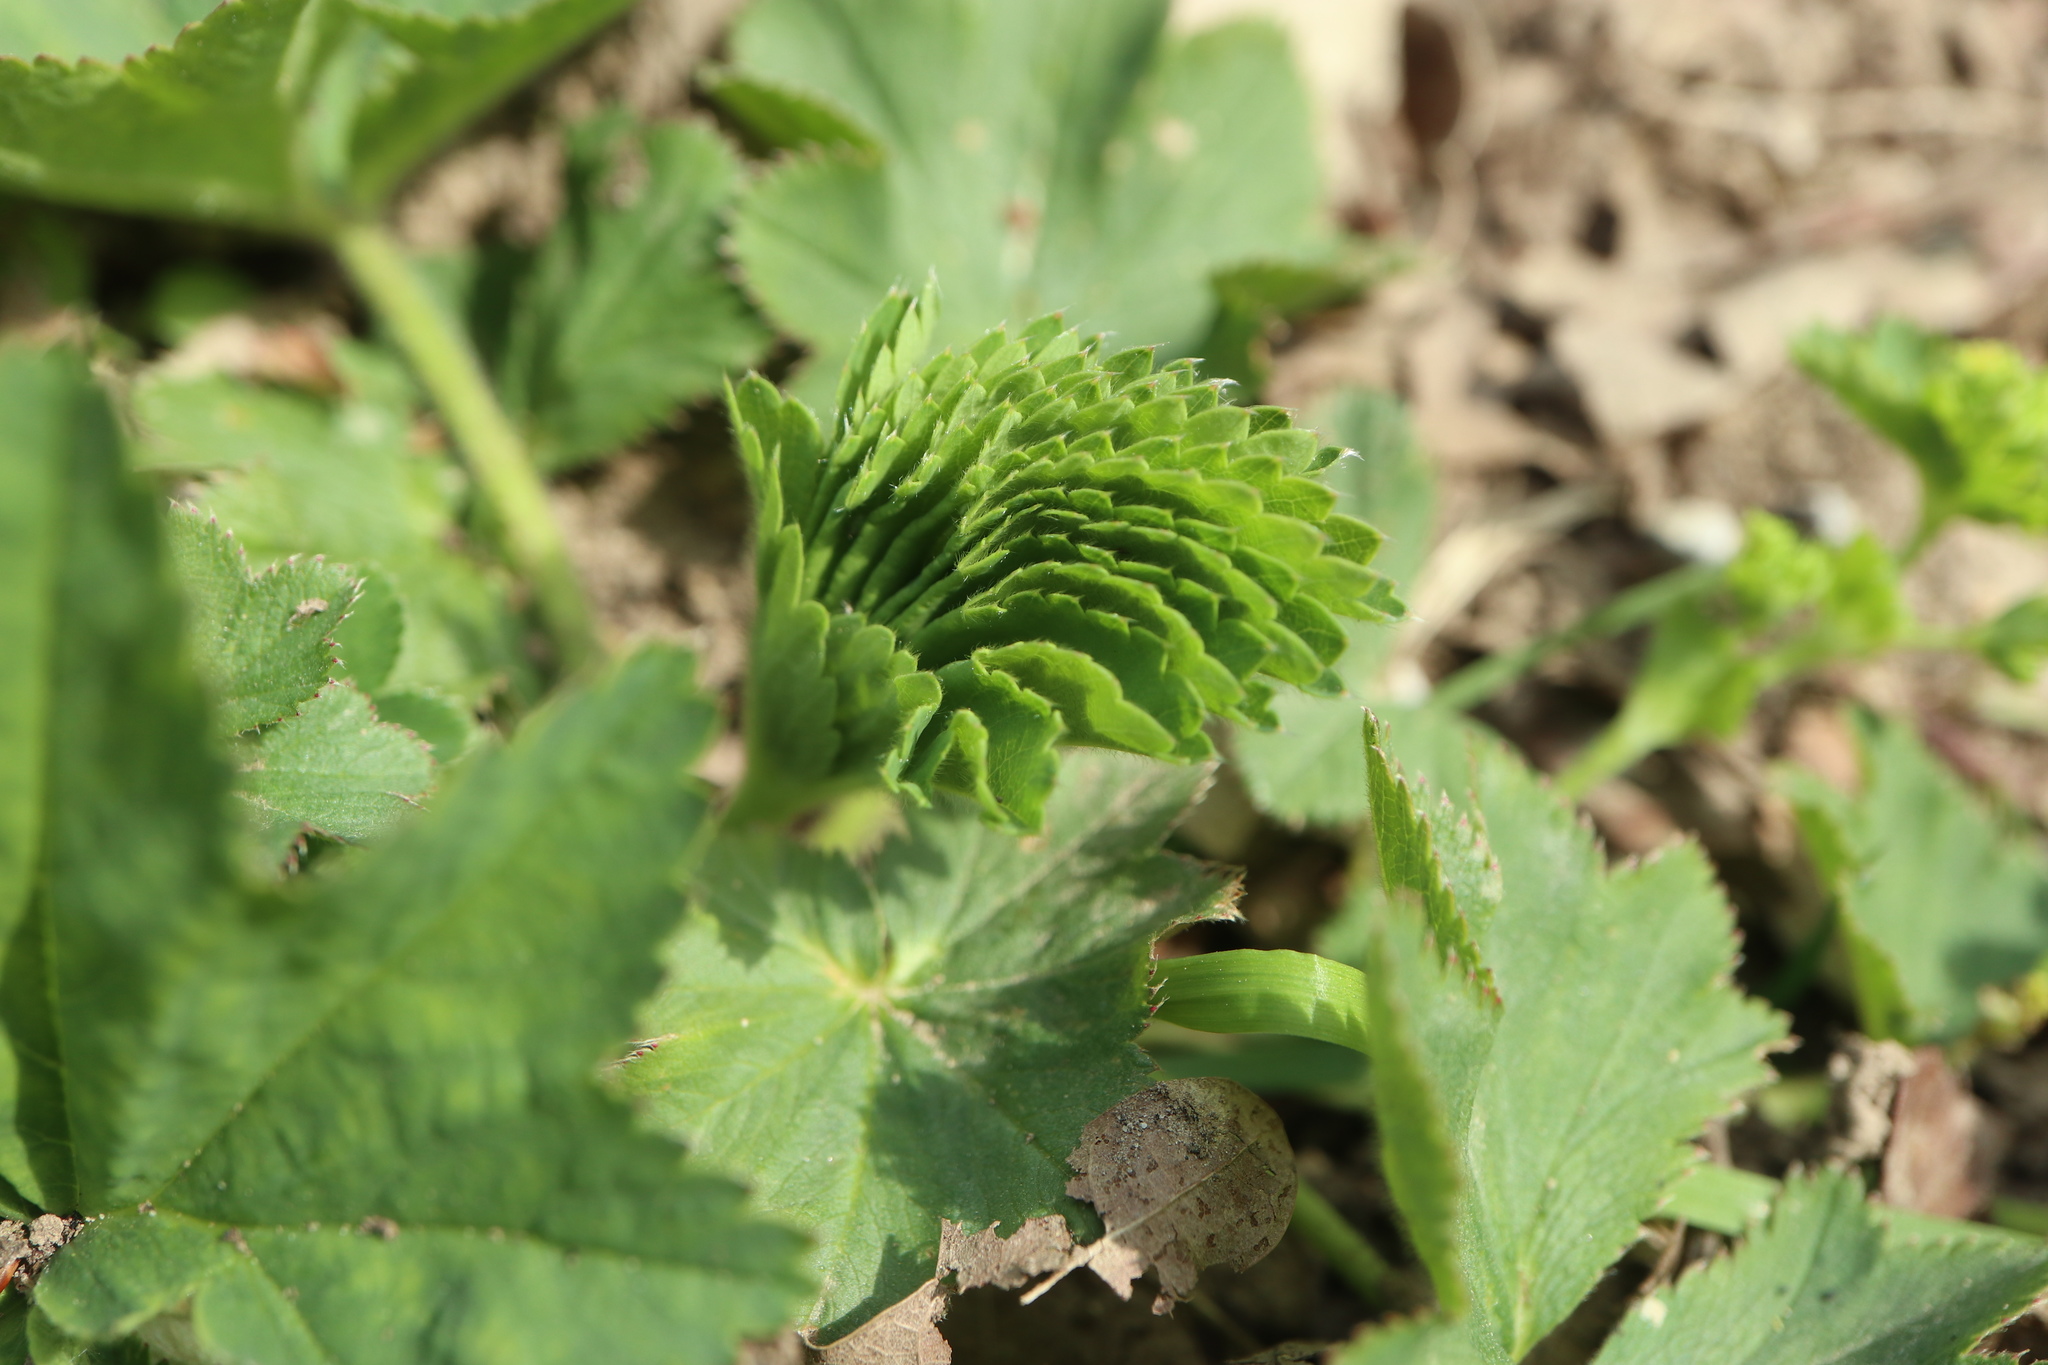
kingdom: Plantae
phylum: Tracheophyta
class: Magnoliopsida
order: Rosales
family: Rosaceae
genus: Alchemilla
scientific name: Alchemilla vulgaris
